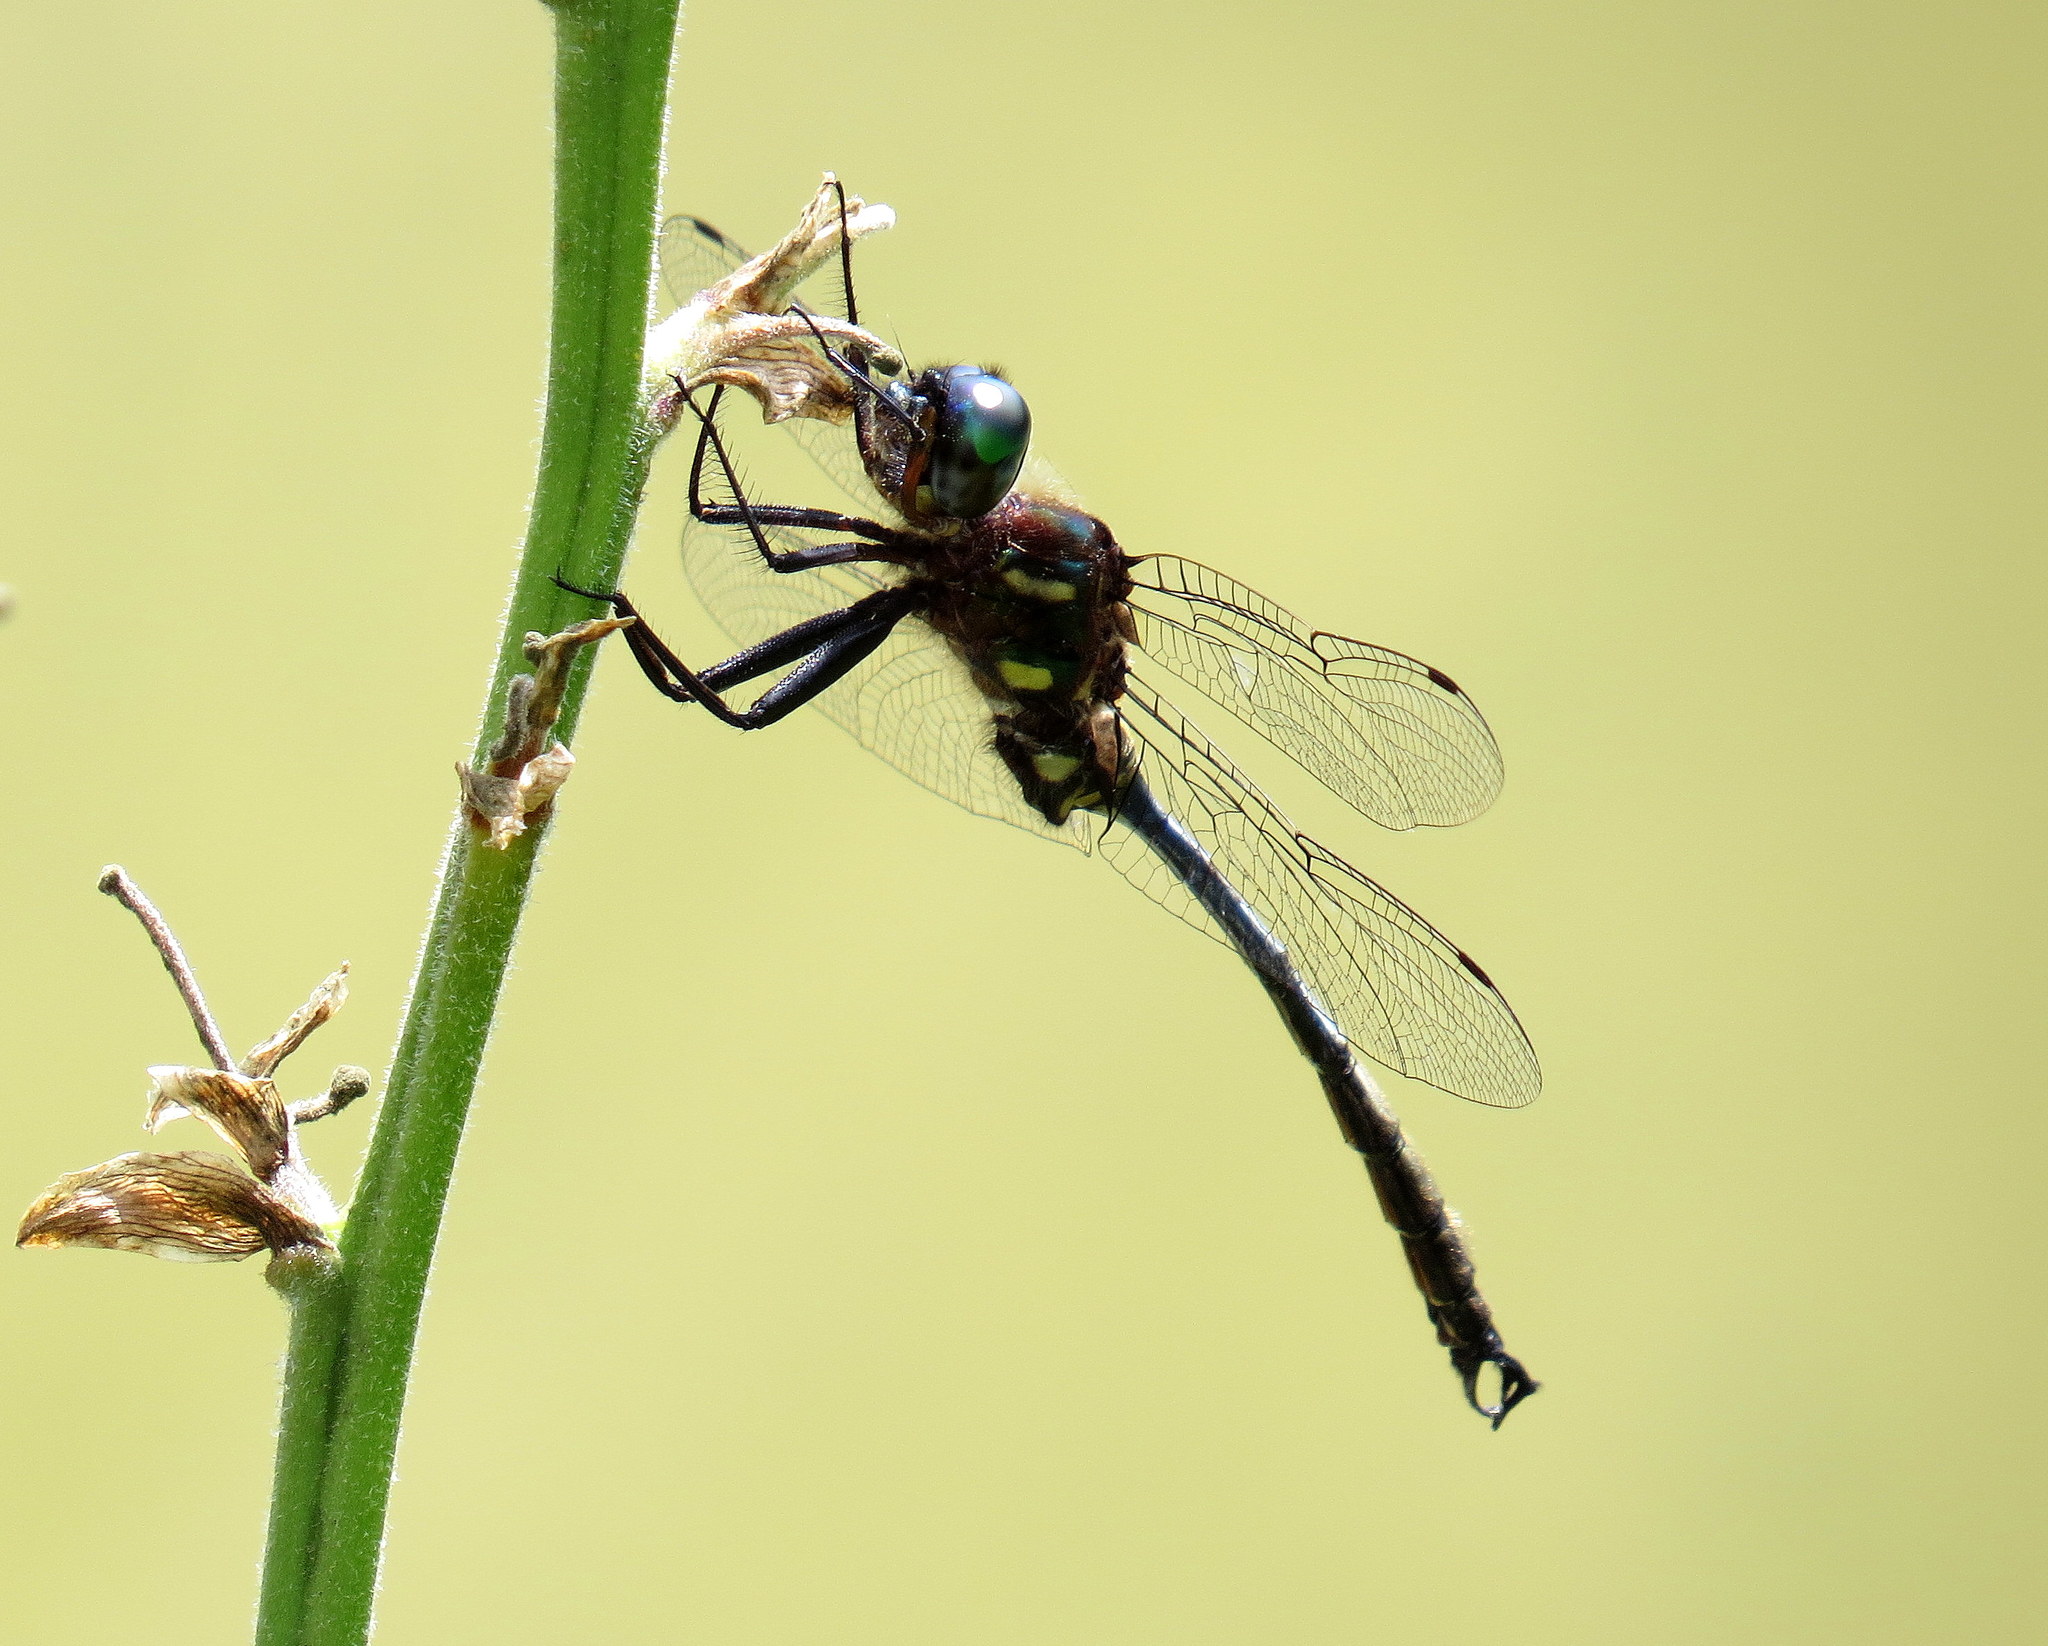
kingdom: Animalia
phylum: Arthropoda
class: Insecta
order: Odonata
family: Corduliidae
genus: Somatochlora
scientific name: Somatochlora tenebrosa
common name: Clamp-tipped emerald
